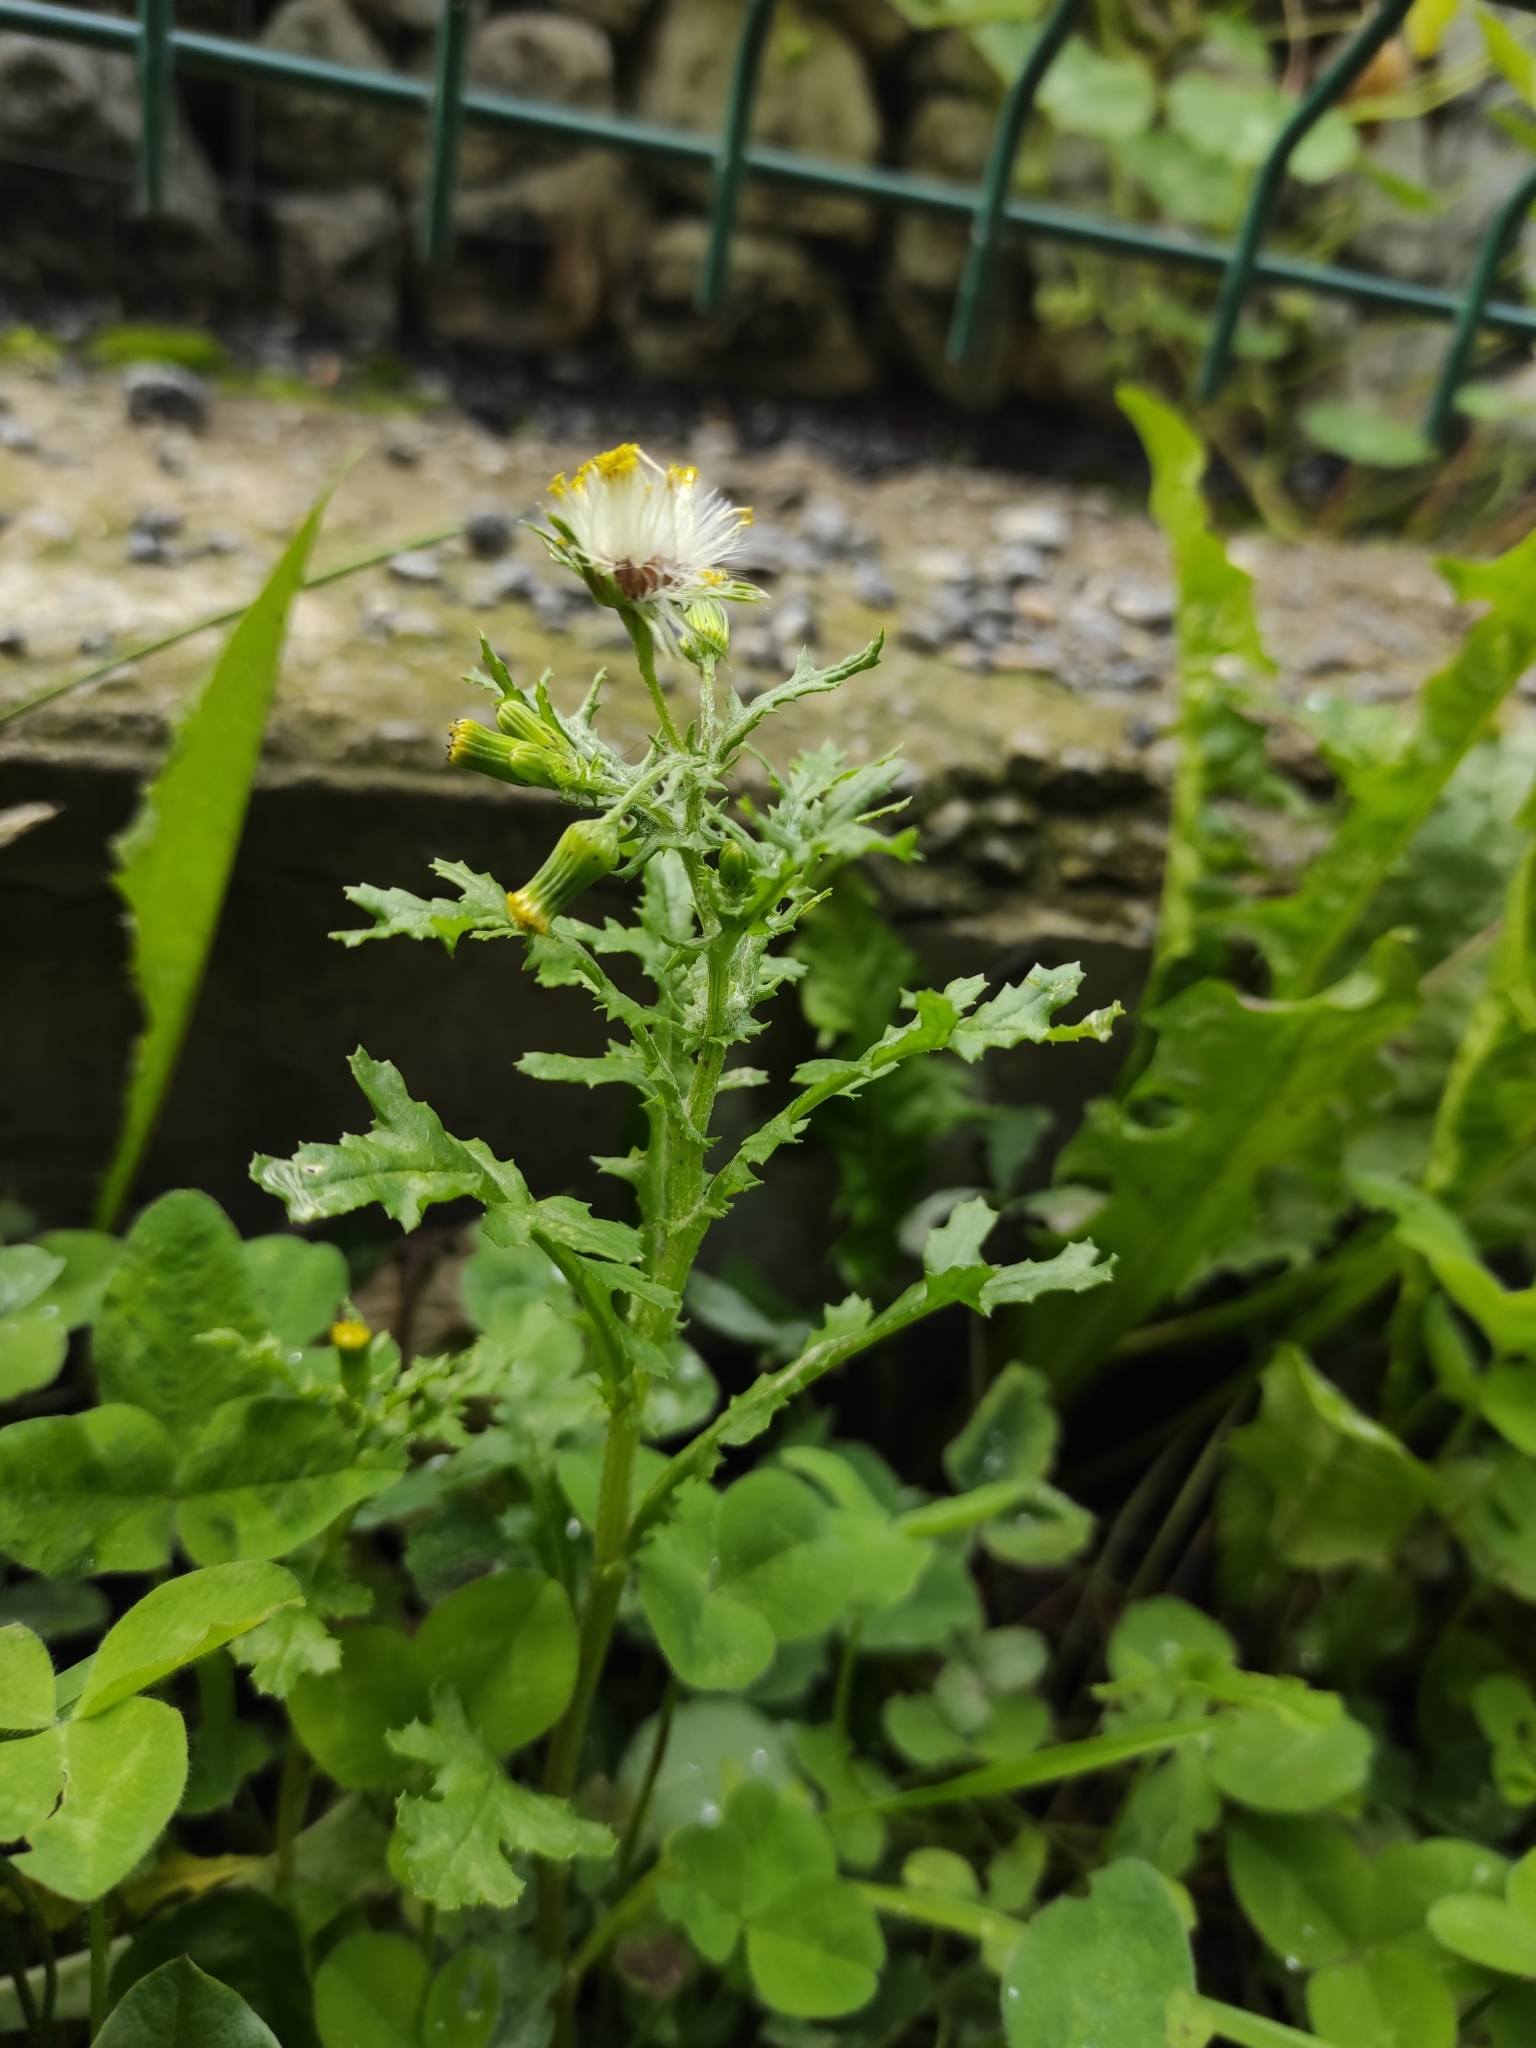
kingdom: Plantae
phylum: Tracheophyta
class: Magnoliopsida
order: Asterales
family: Asteraceae
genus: Senecio
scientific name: Senecio vulgaris
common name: Old-man-in-the-spring
